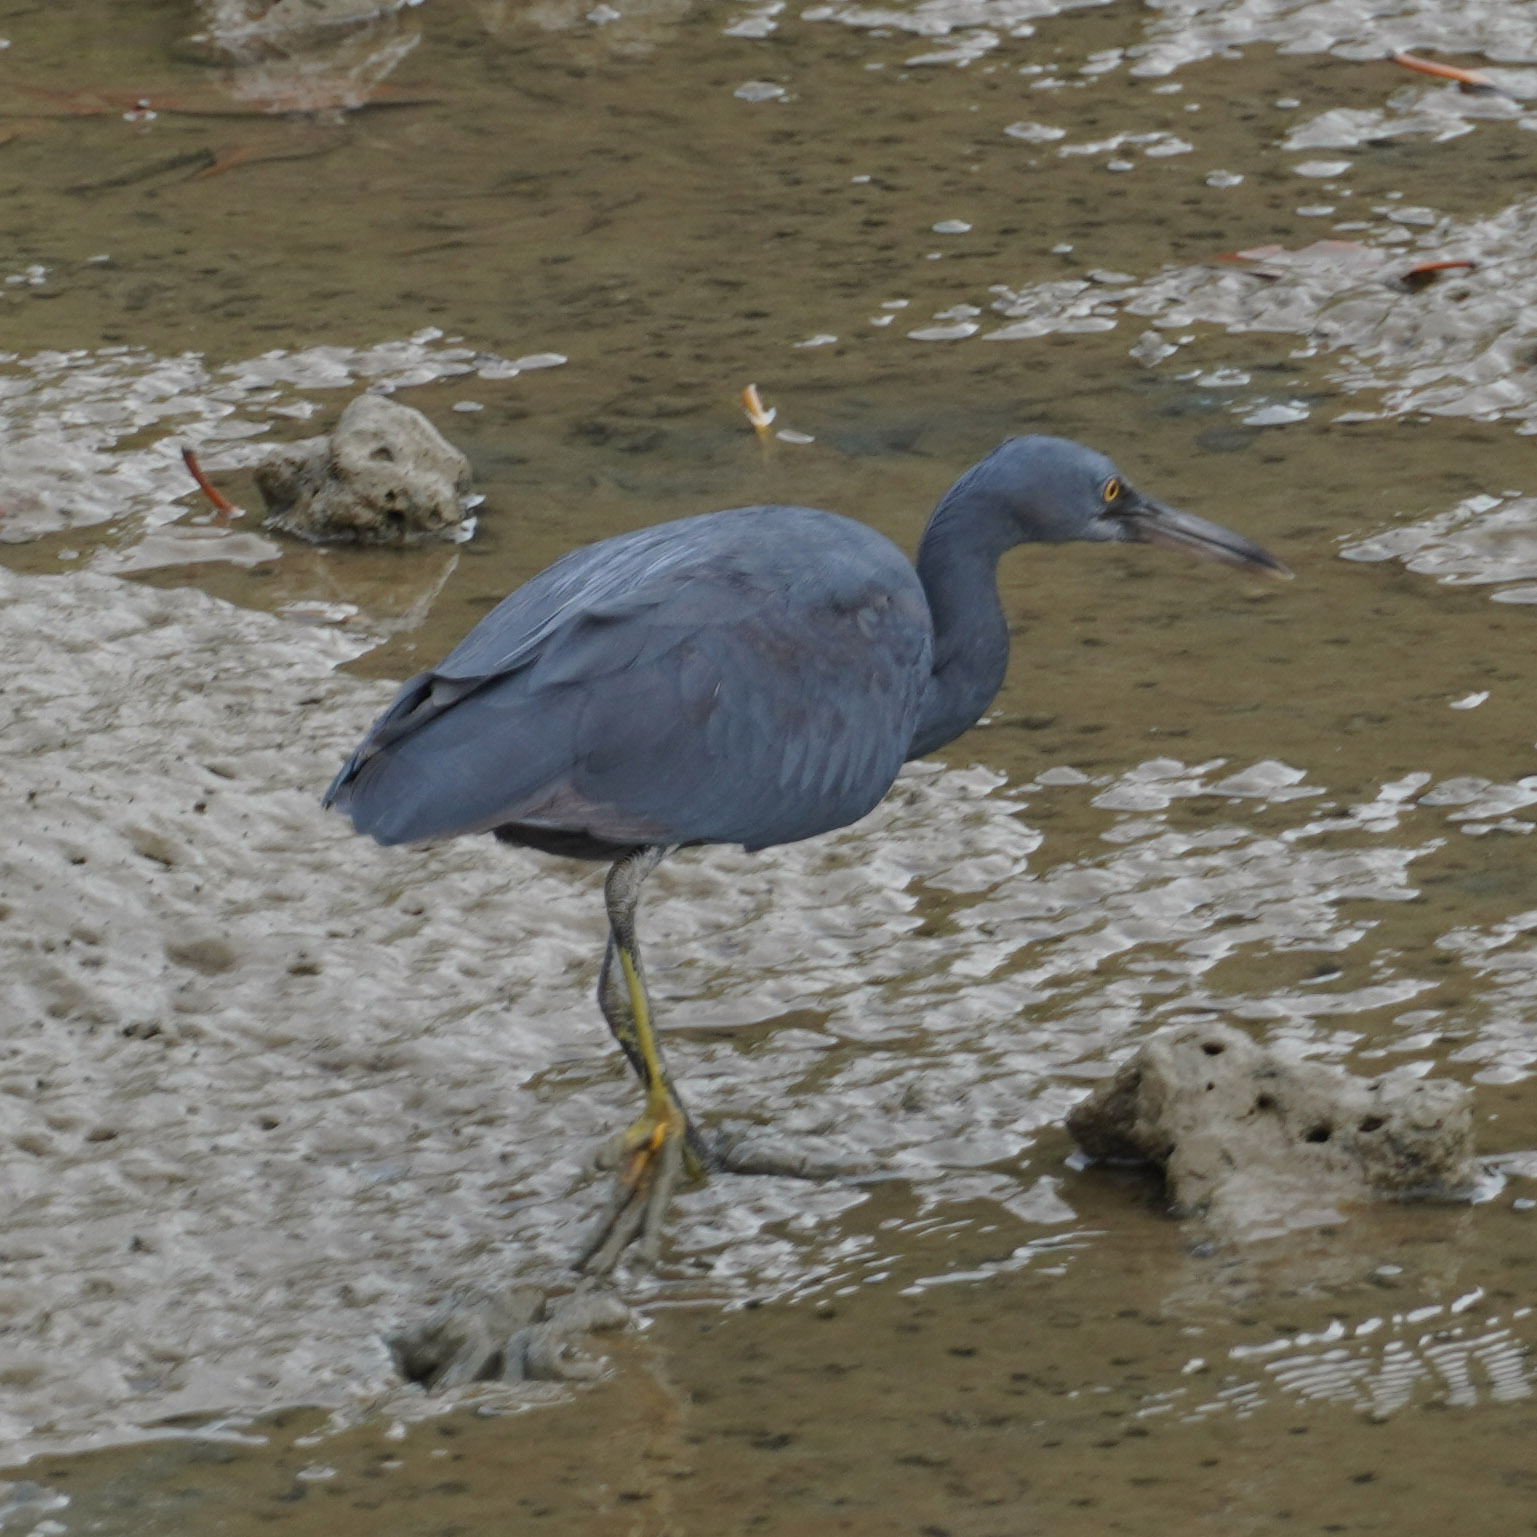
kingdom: Animalia
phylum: Chordata
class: Aves
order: Pelecaniformes
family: Ardeidae
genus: Egretta
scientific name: Egretta sacra
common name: Pacific reef heron
